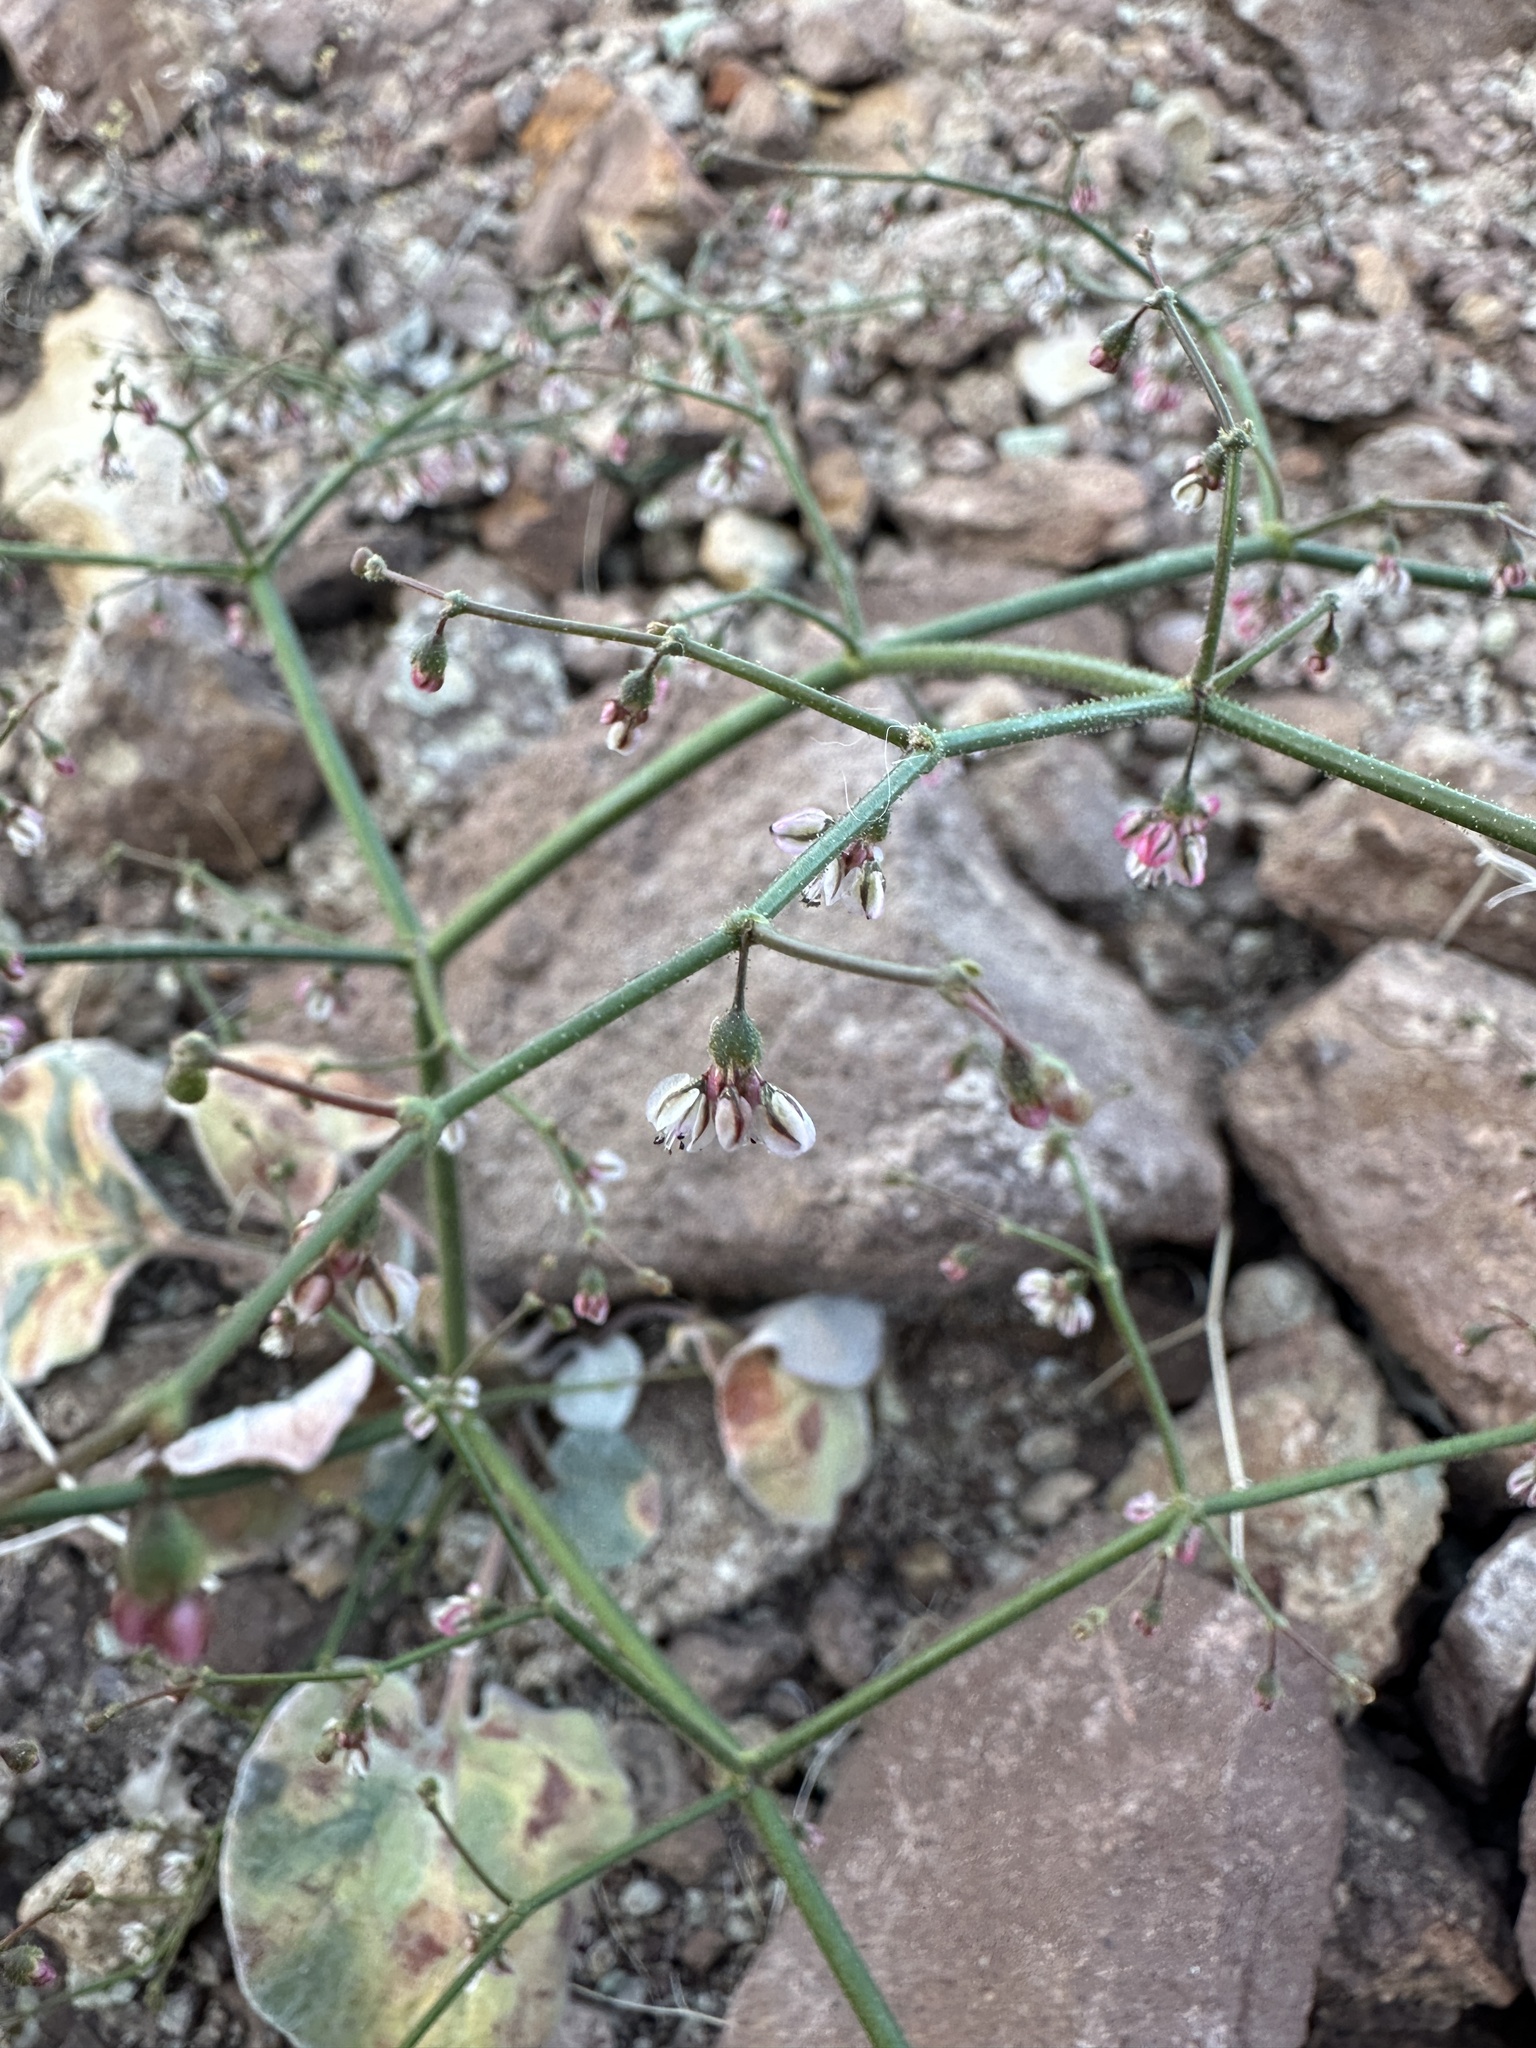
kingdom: Plantae
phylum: Tracheophyta
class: Magnoliopsida
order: Caryophyllales
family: Polygonaceae
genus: Eriogonum
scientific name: Eriogonum brachypodum
